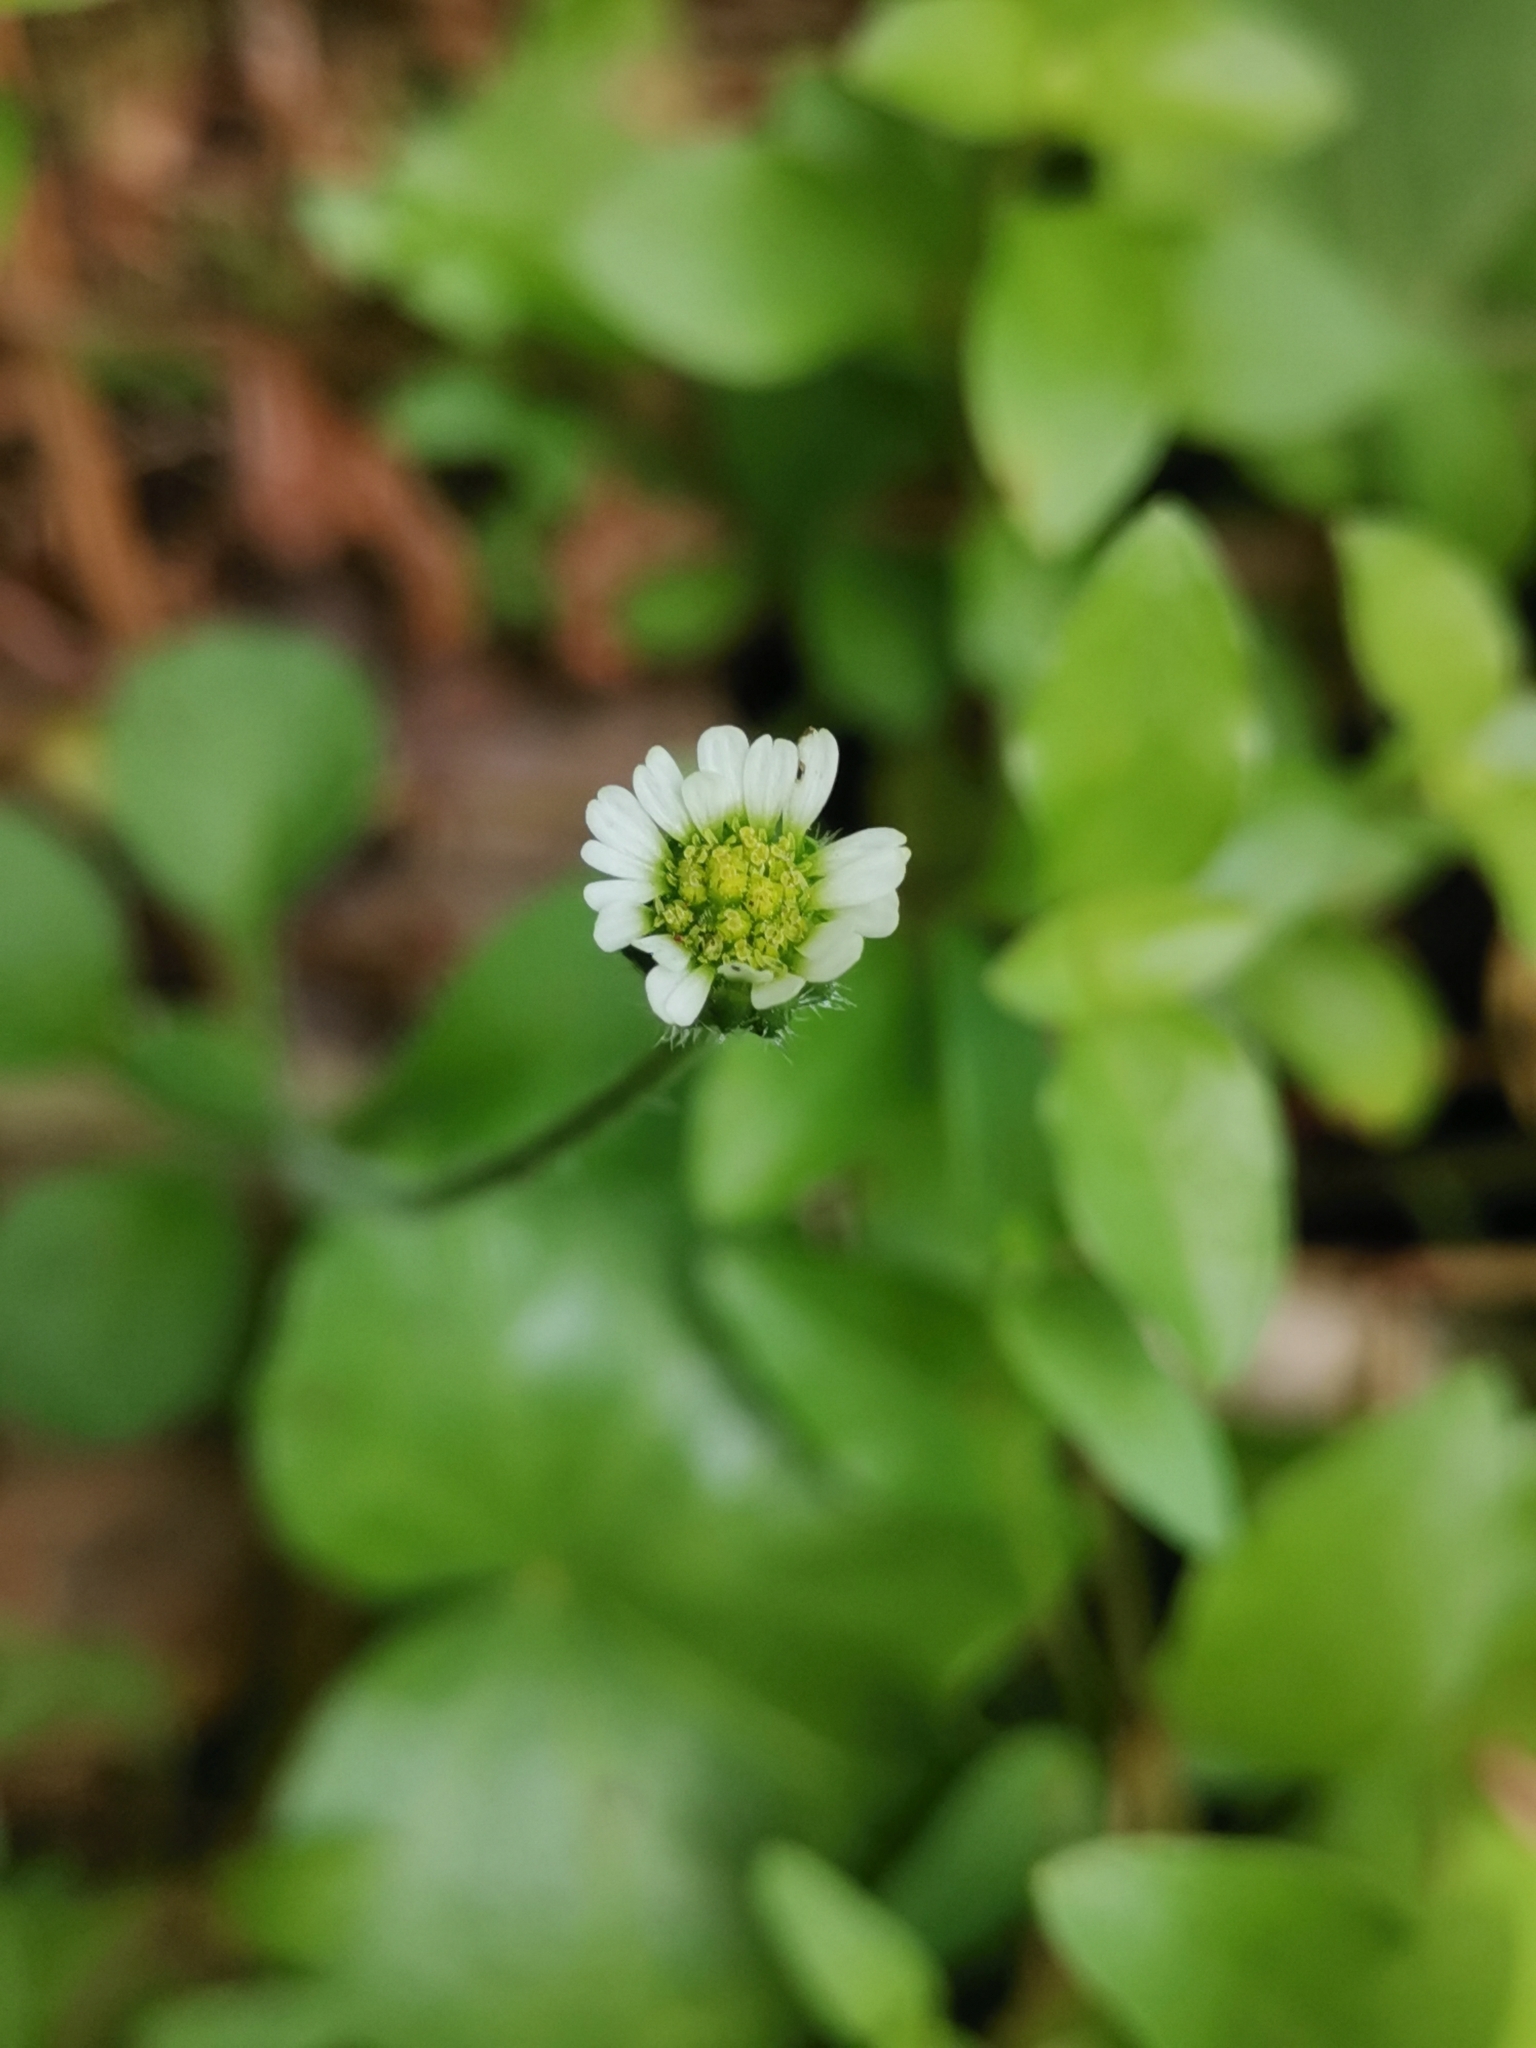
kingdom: Plantae
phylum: Tracheophyta
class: Magnoliopsida
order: Asterales
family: Asteraceae
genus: Bellis
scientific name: Bellis azorica
